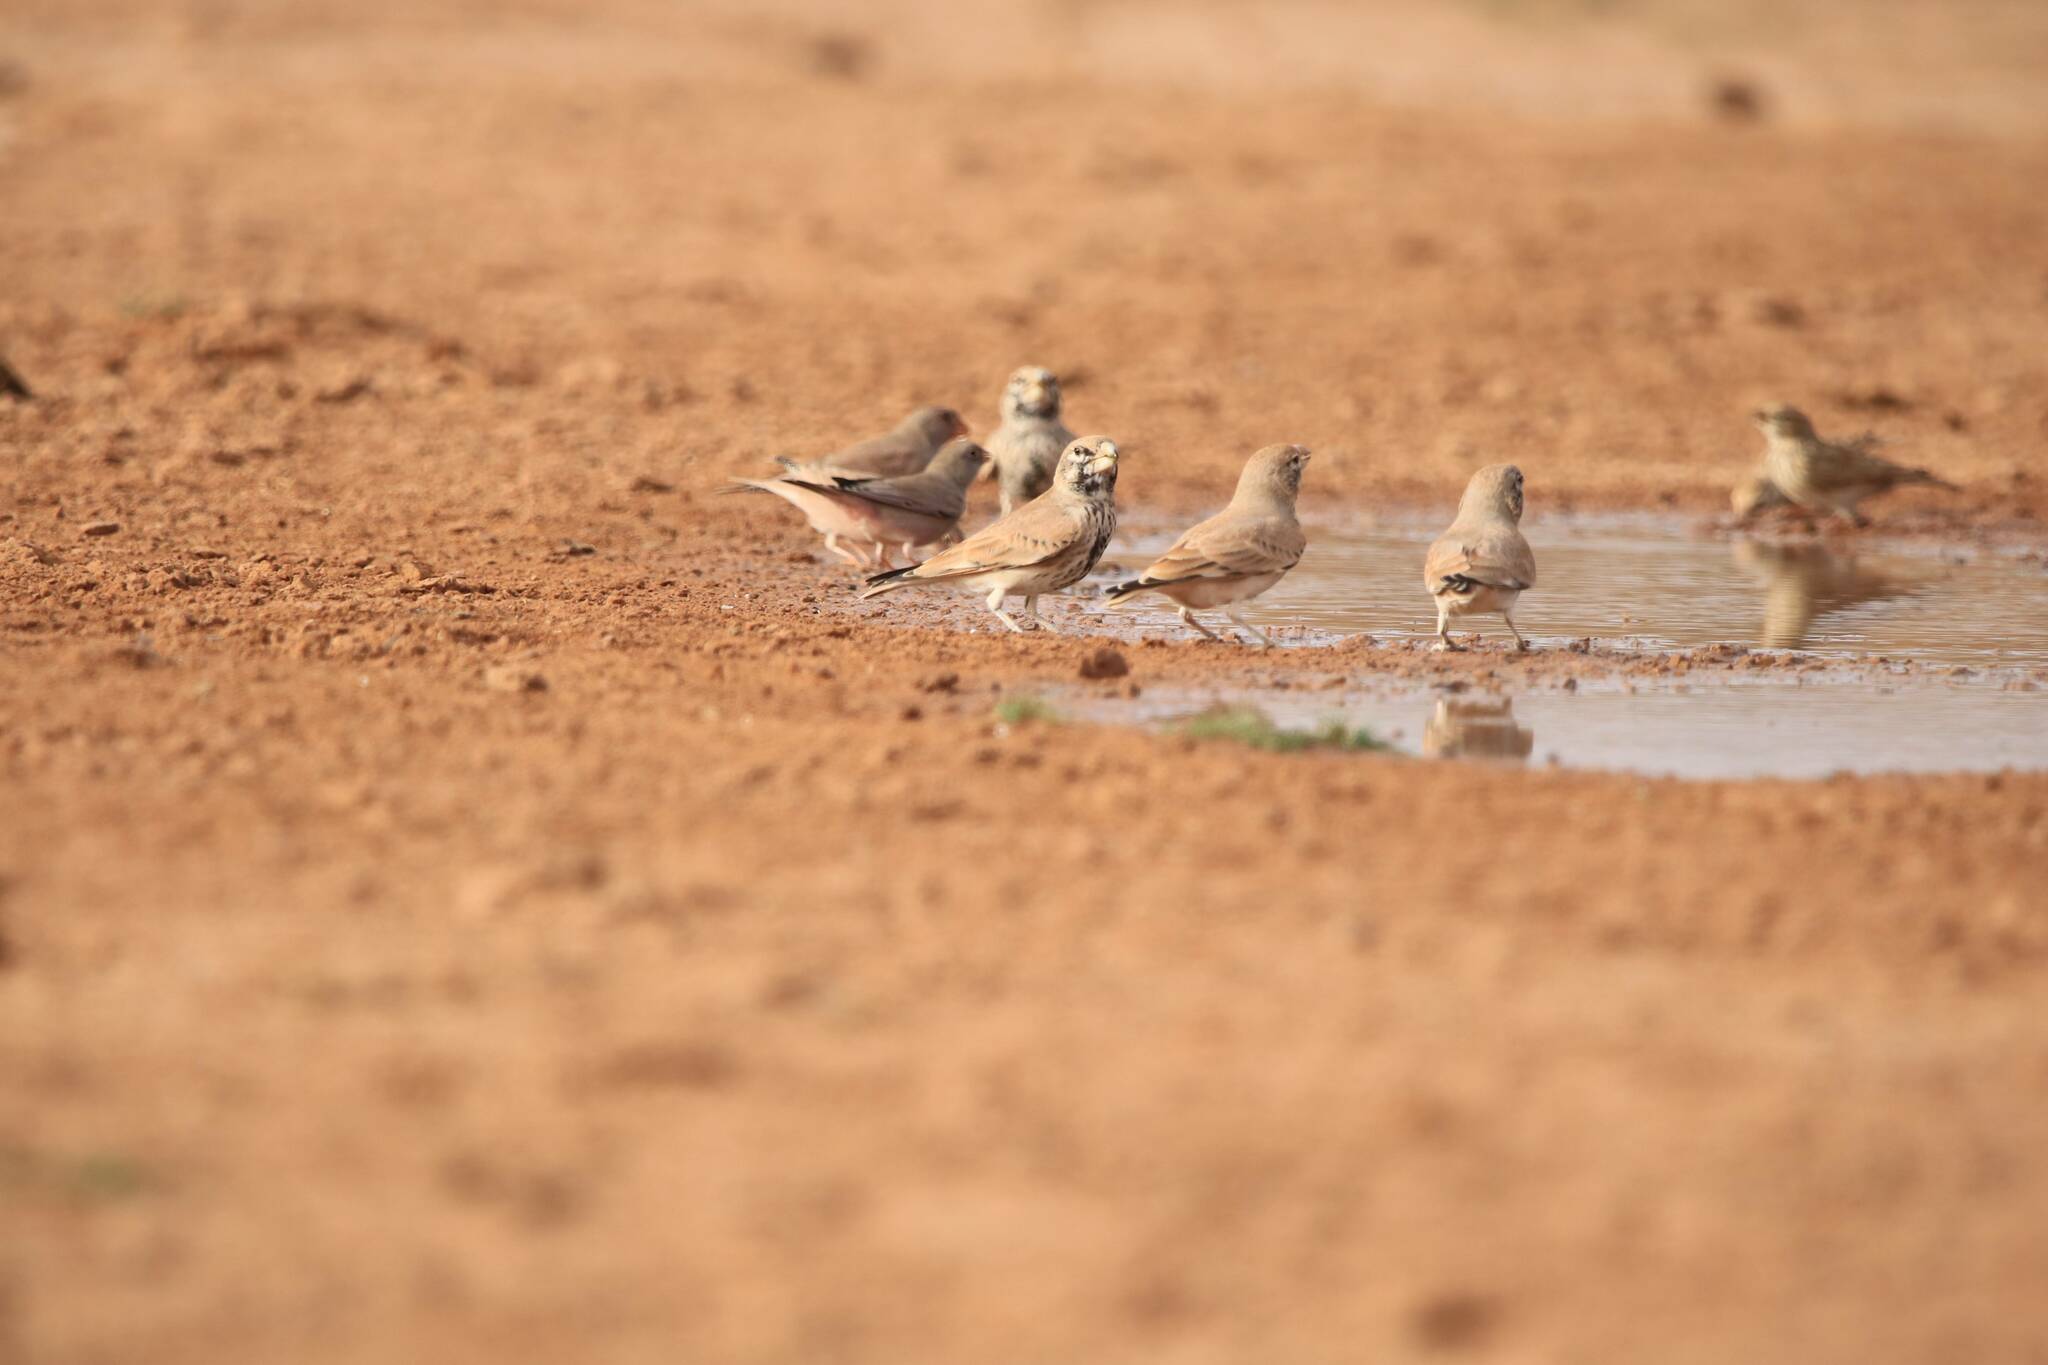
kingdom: Animalia
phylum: Chordata
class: Aves
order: Passeriformes
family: Alaudidae
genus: Ramphocoris
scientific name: Ramphocoris clotbey
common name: Thick-billed lark
